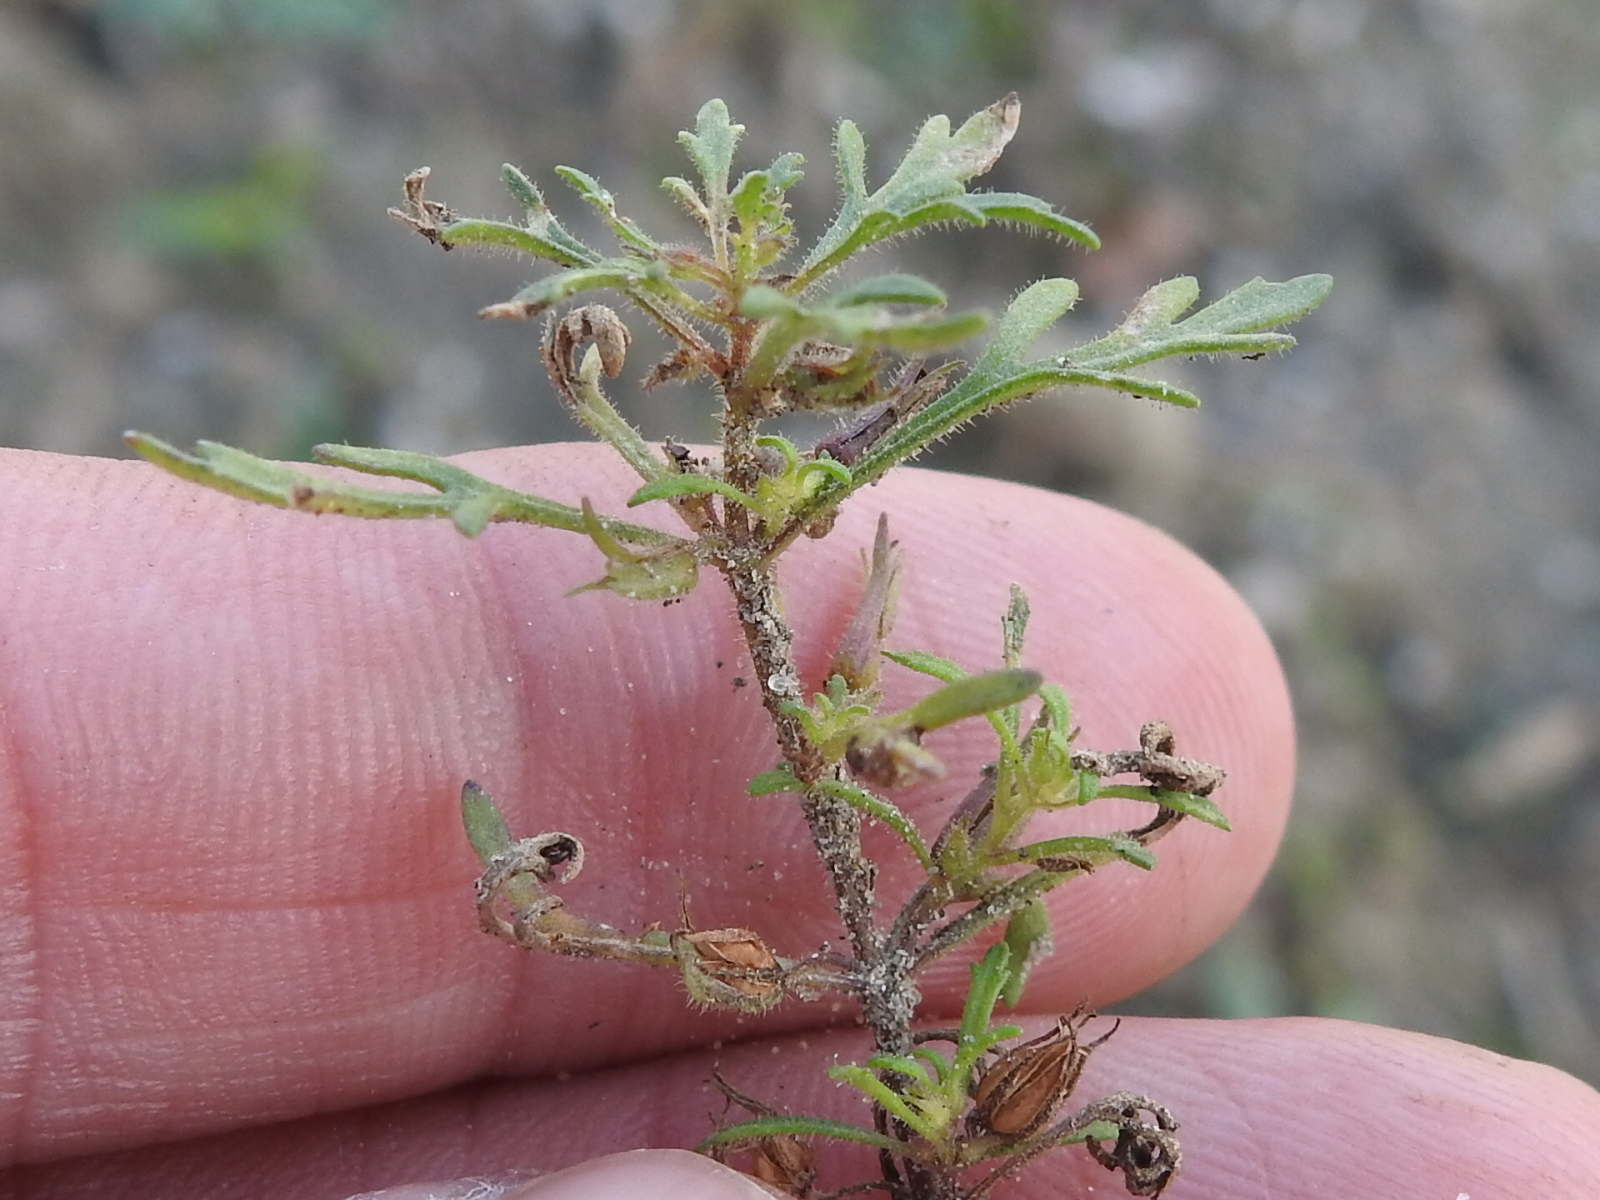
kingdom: Plantae
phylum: Tracheophyta
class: Magnoliopsida
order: Lamiales
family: Plantaginaceae
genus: Leucospora
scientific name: Leucospora multifida
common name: Narrow-leaf paleseed
